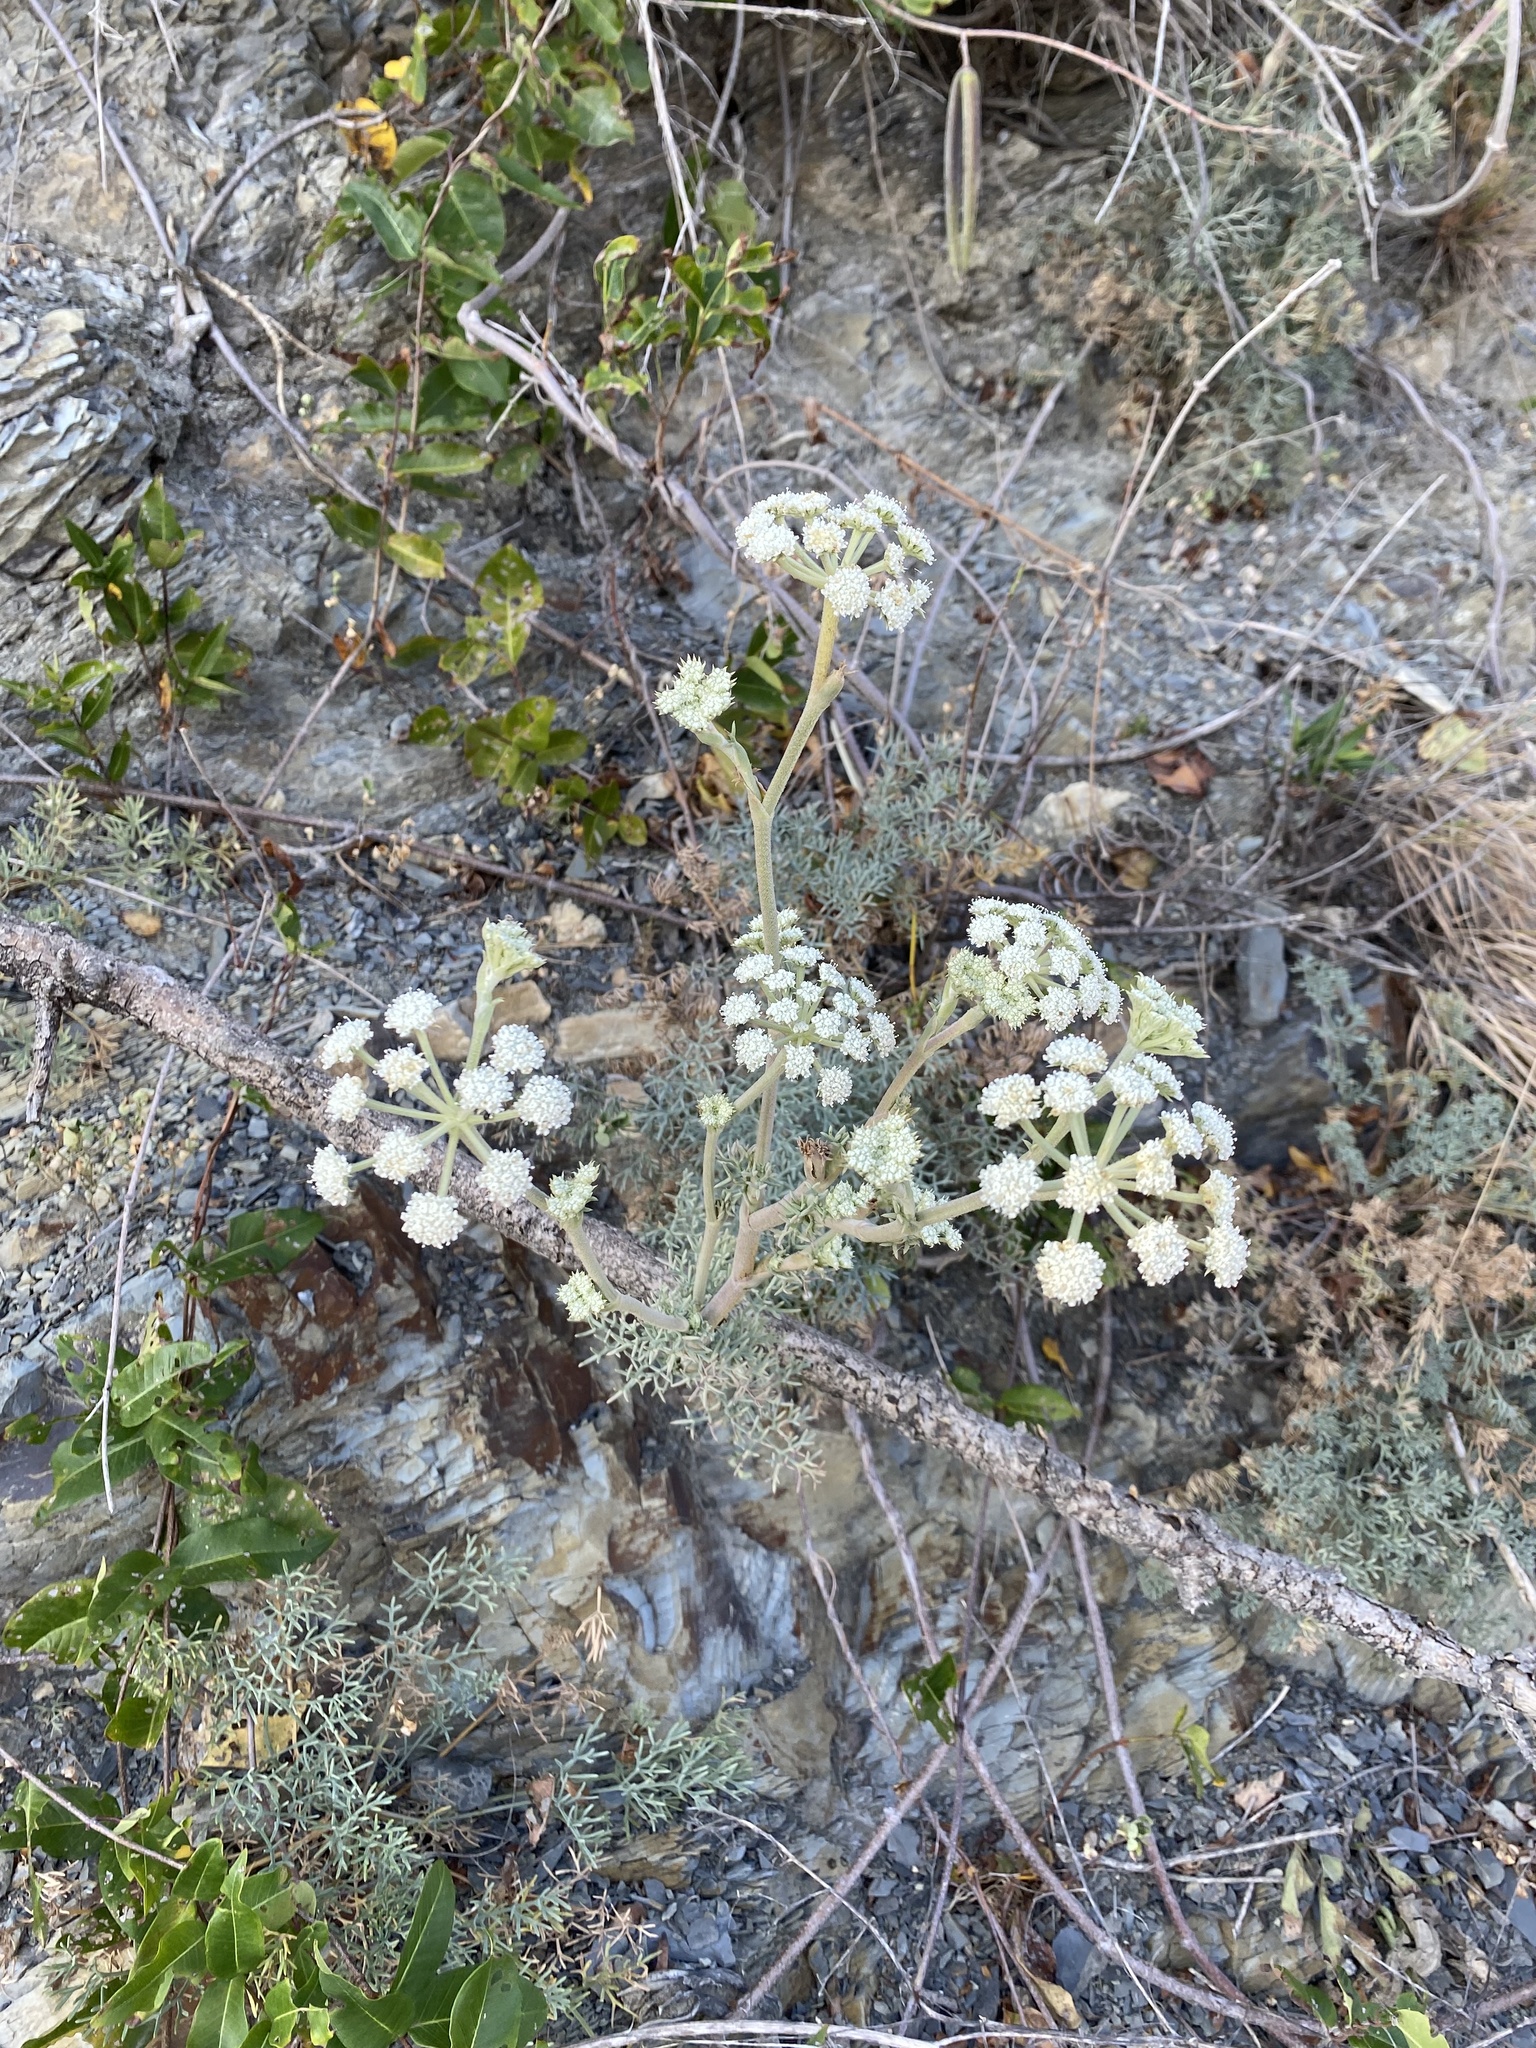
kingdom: Plantae
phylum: Tracheophyta
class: Magnoliopsida
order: Apiales
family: Apiaceae
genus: Seseli
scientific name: Seseli ponticum
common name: Pontic seseli
